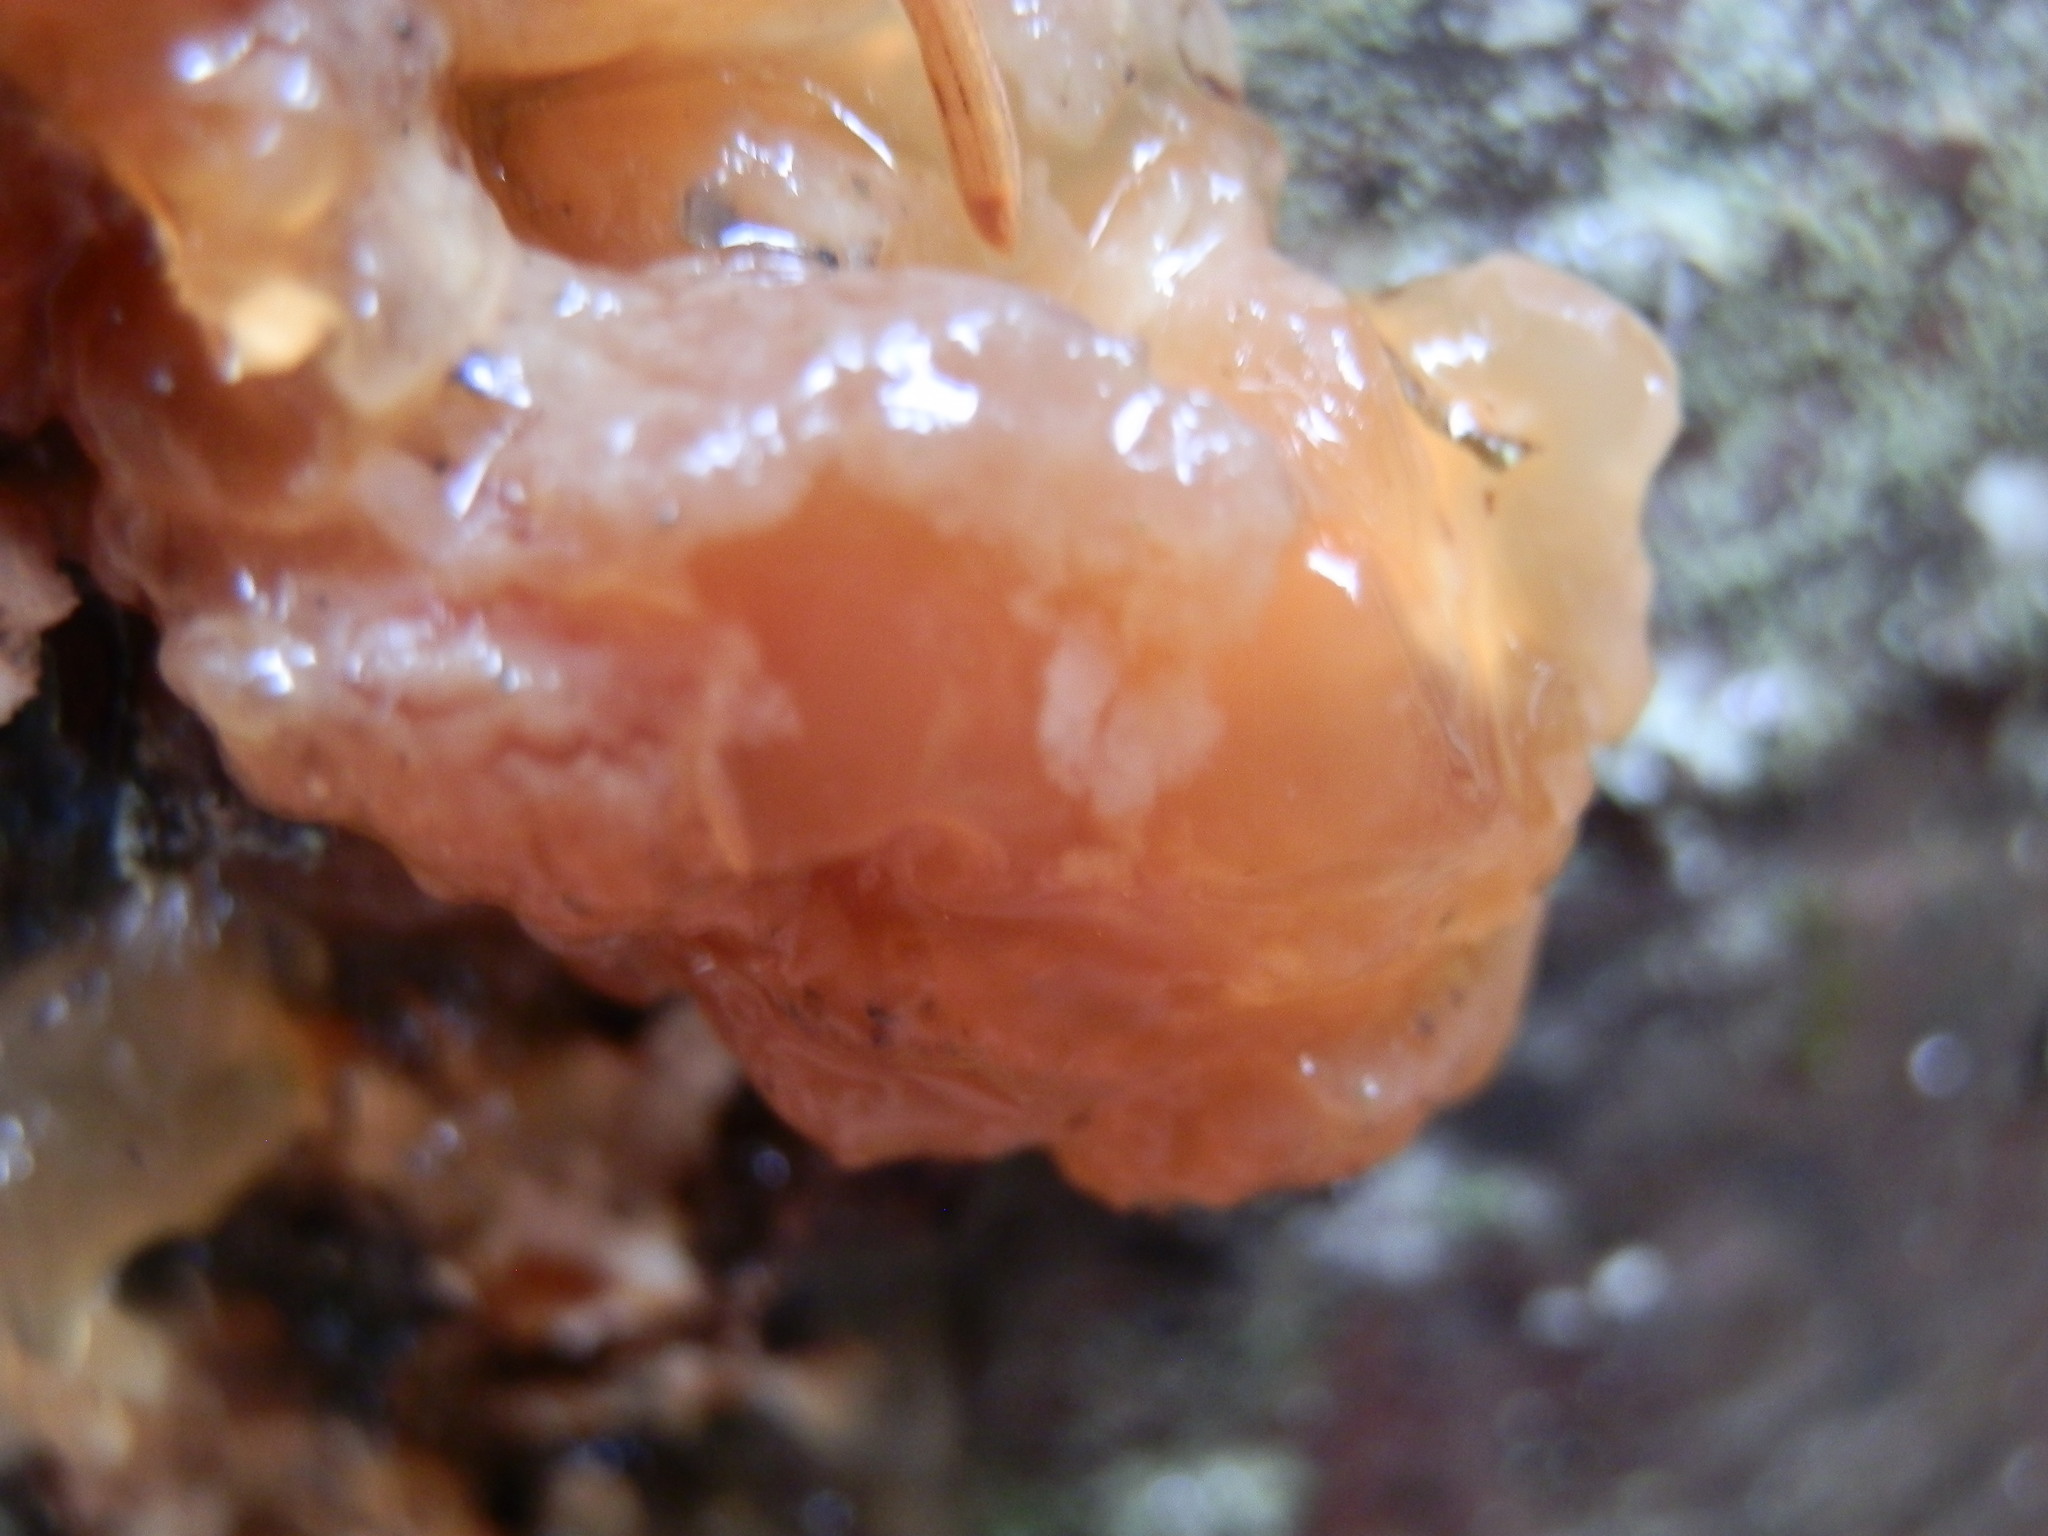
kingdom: Fungi
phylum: Basidiomycota
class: Agaricomycetes
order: Auriculariales
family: Hyaloriaceae
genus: Myxarium
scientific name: Myxarium nucleatum
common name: Crystal brain fungus
